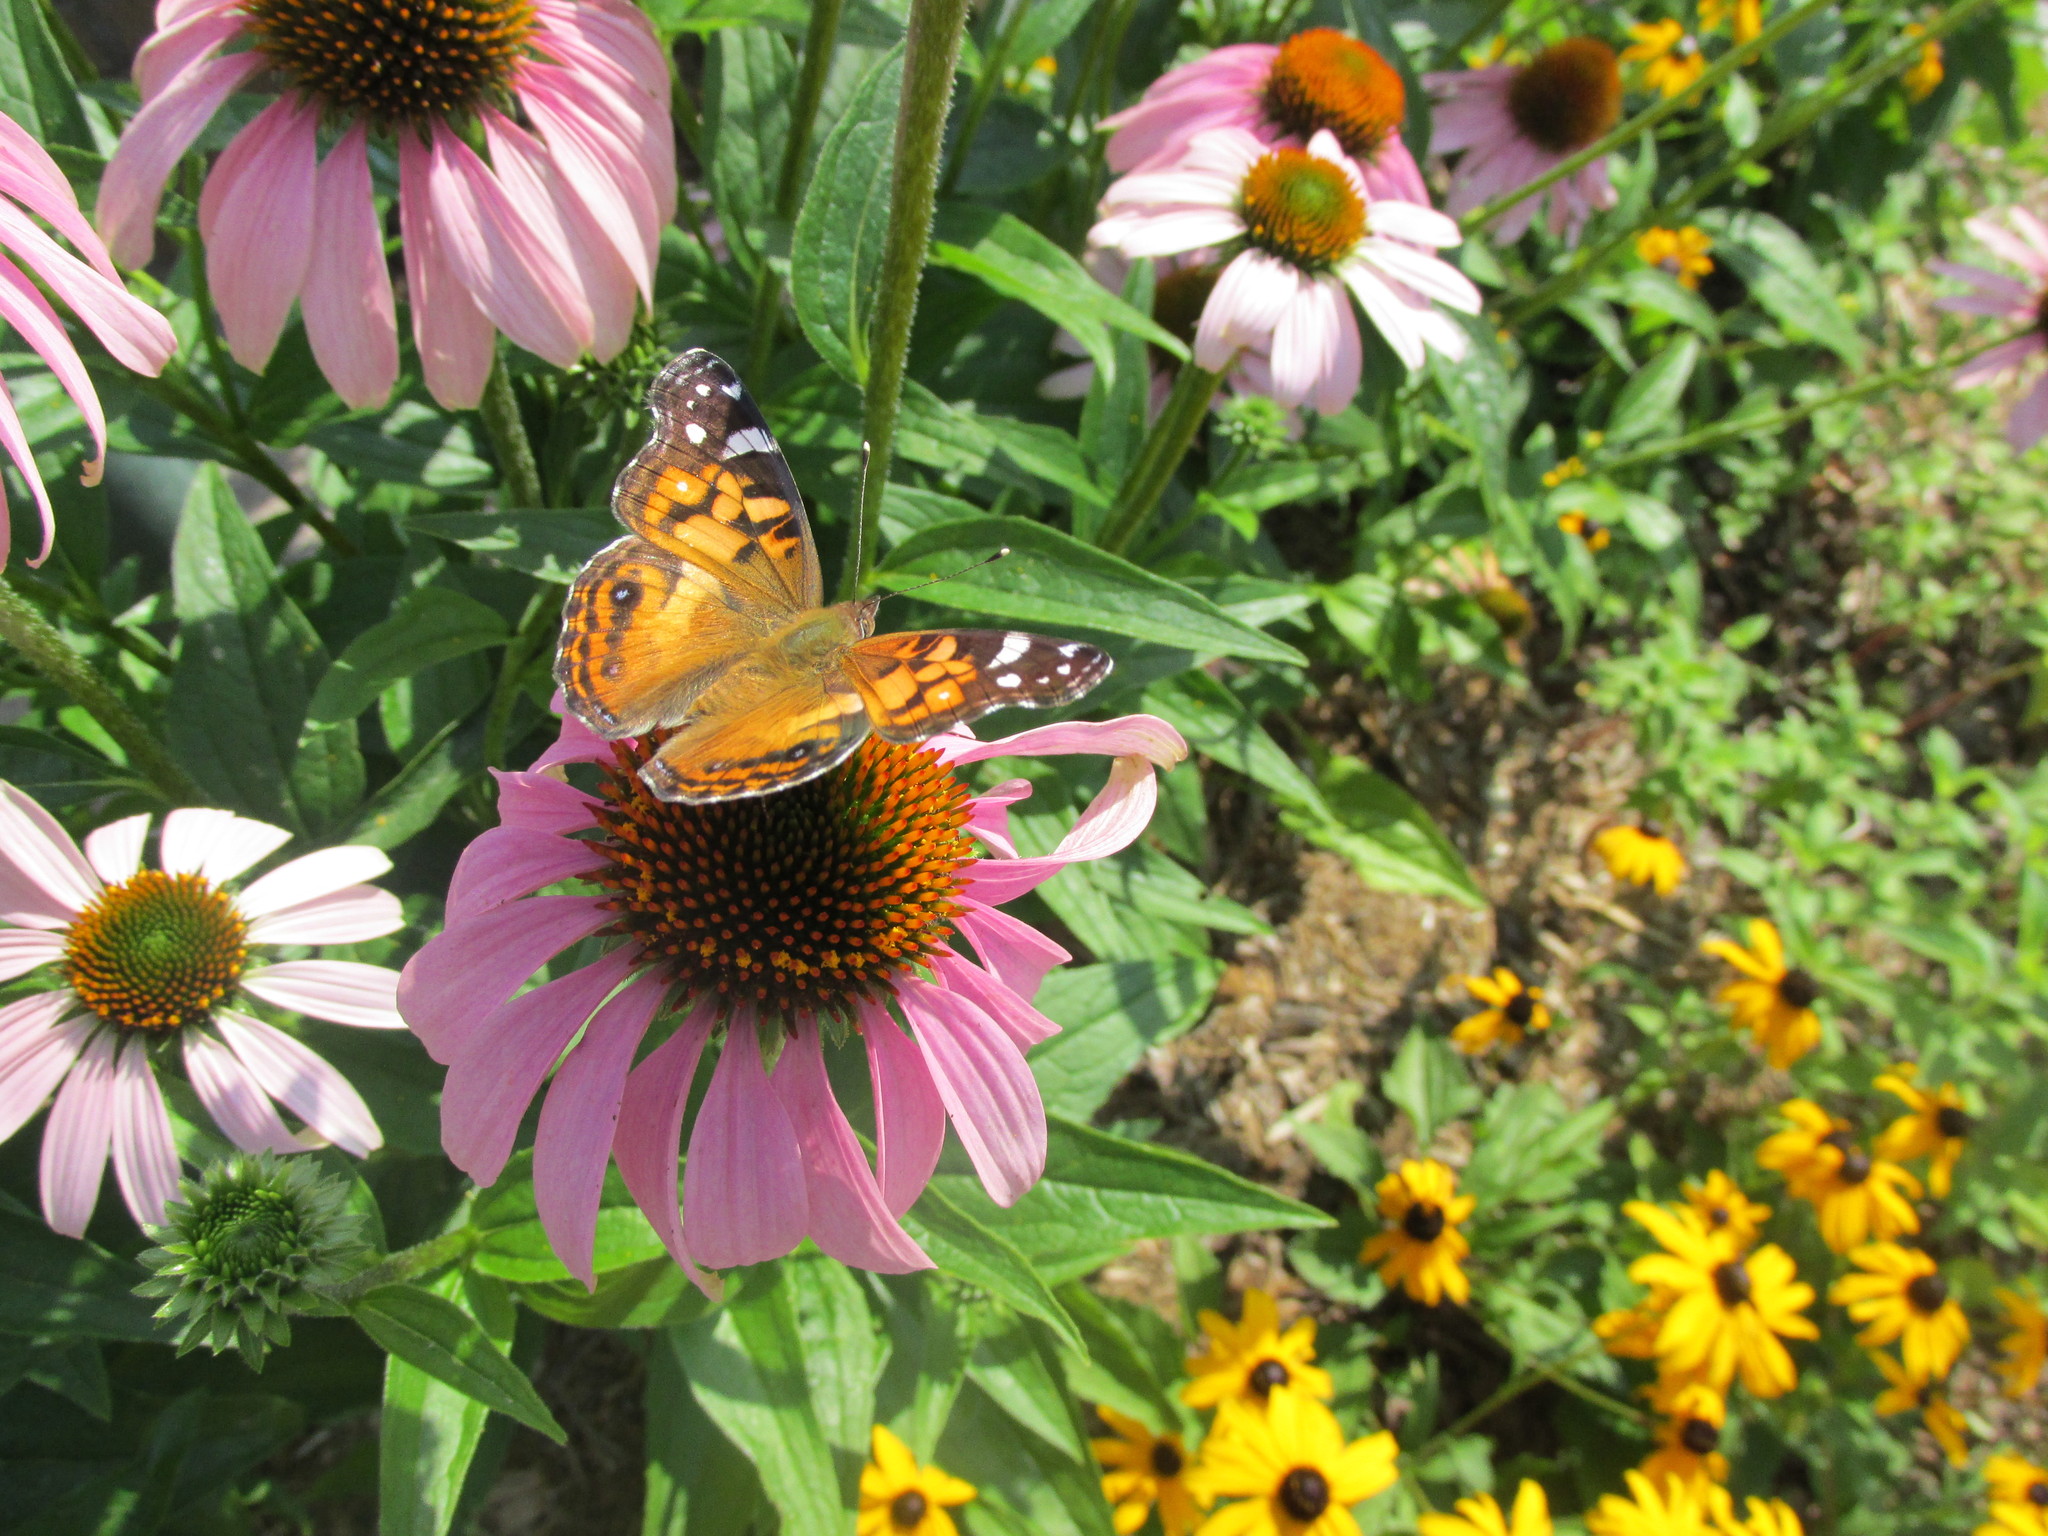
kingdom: Animalia
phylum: Arthropoda
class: Insecta
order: Lepidoptera
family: Nymphalidae
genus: Vanessa
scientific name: Vanessa virginiensis
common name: American lady
